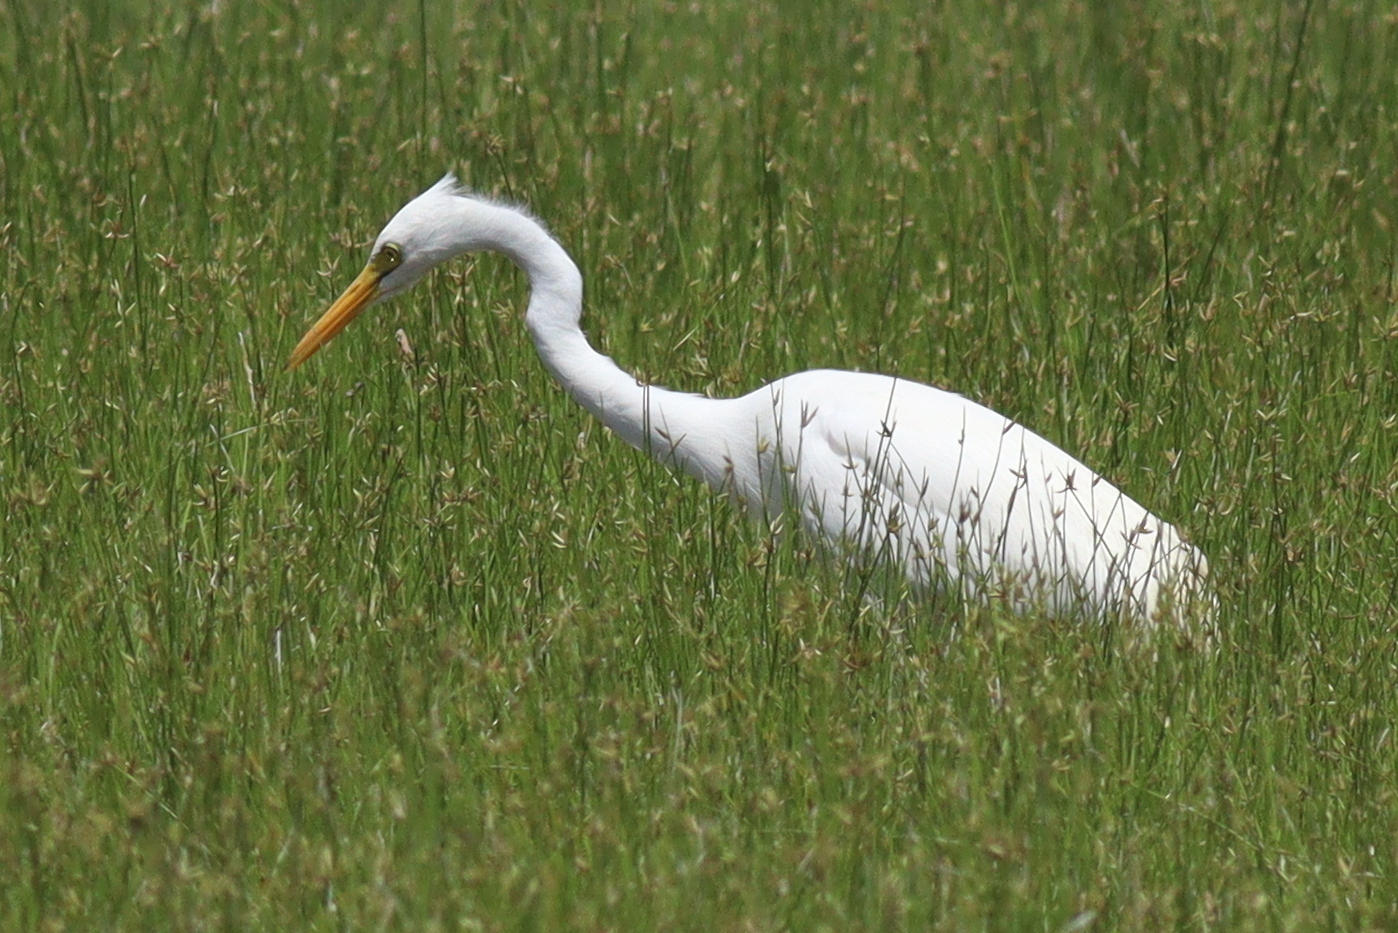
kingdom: Animalia
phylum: Chordata
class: Aves
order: Pelecaniformes
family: Ardeidae
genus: Egretta
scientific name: Egretta intermedia
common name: Intermediate egret
